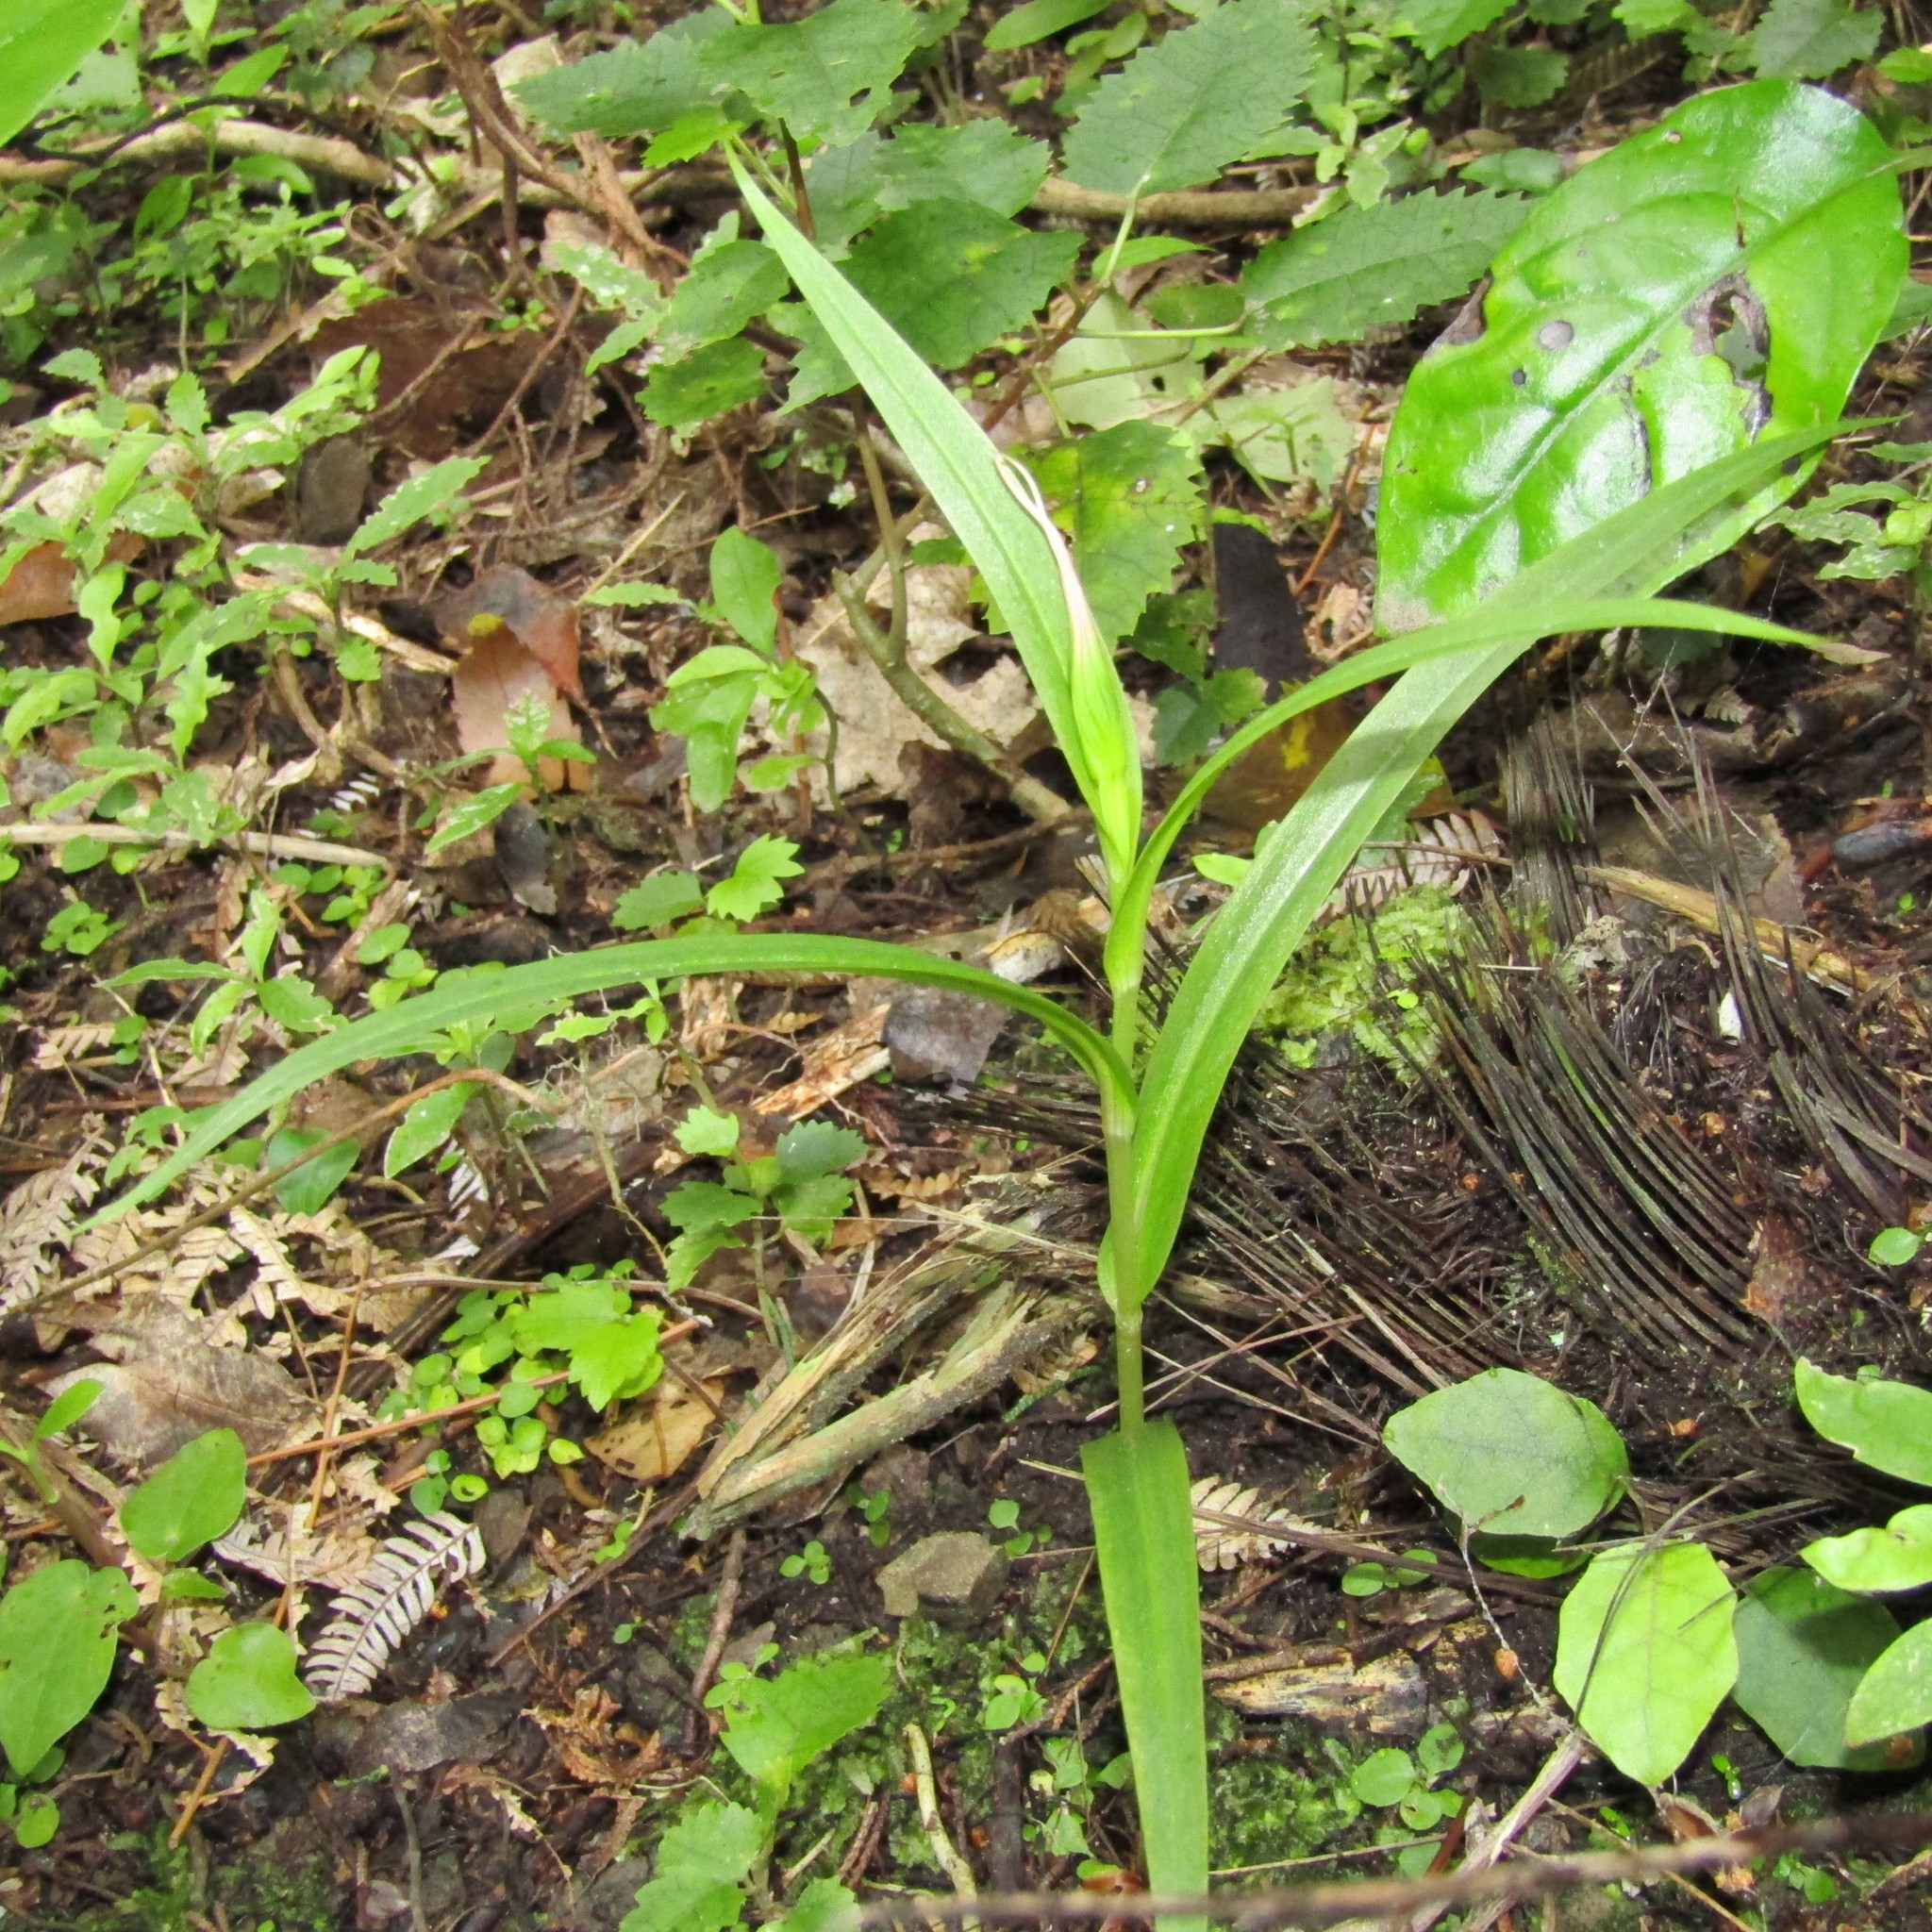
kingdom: Plantae
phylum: Tracheophyta
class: Liliopsida
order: Asparagales
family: Orchidaceae
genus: Pterostylis
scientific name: Pterostylis banksii
